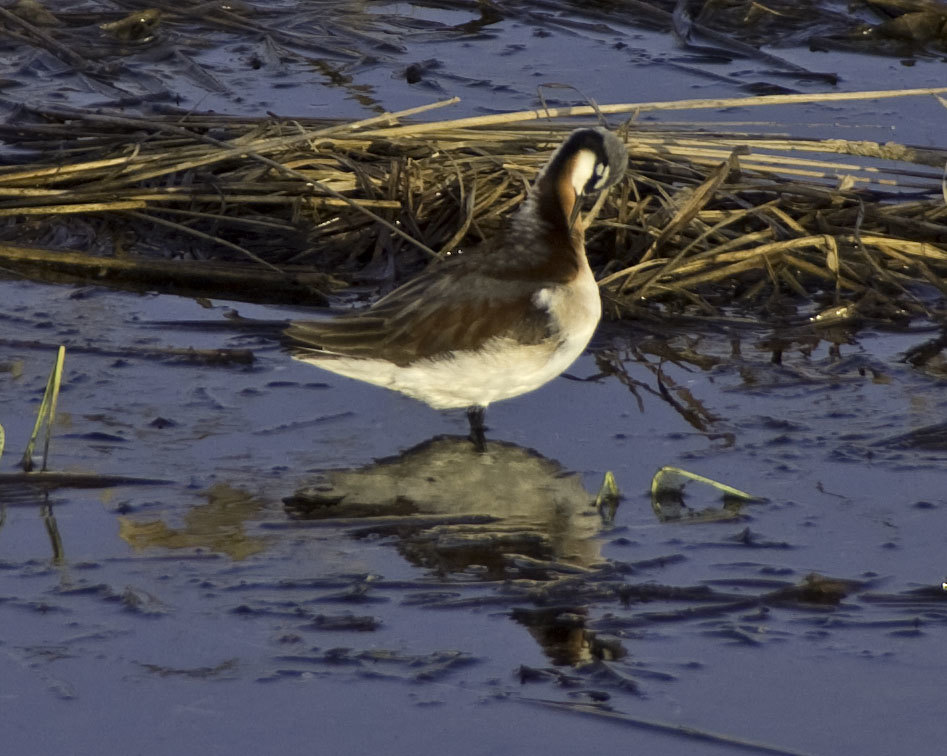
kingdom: Animalia
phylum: Chordata
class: Aves
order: Charadriiformes
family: Scolopacidae
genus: Phalaropus
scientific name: Phalaropus tricolor
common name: Wilson's phalarope
